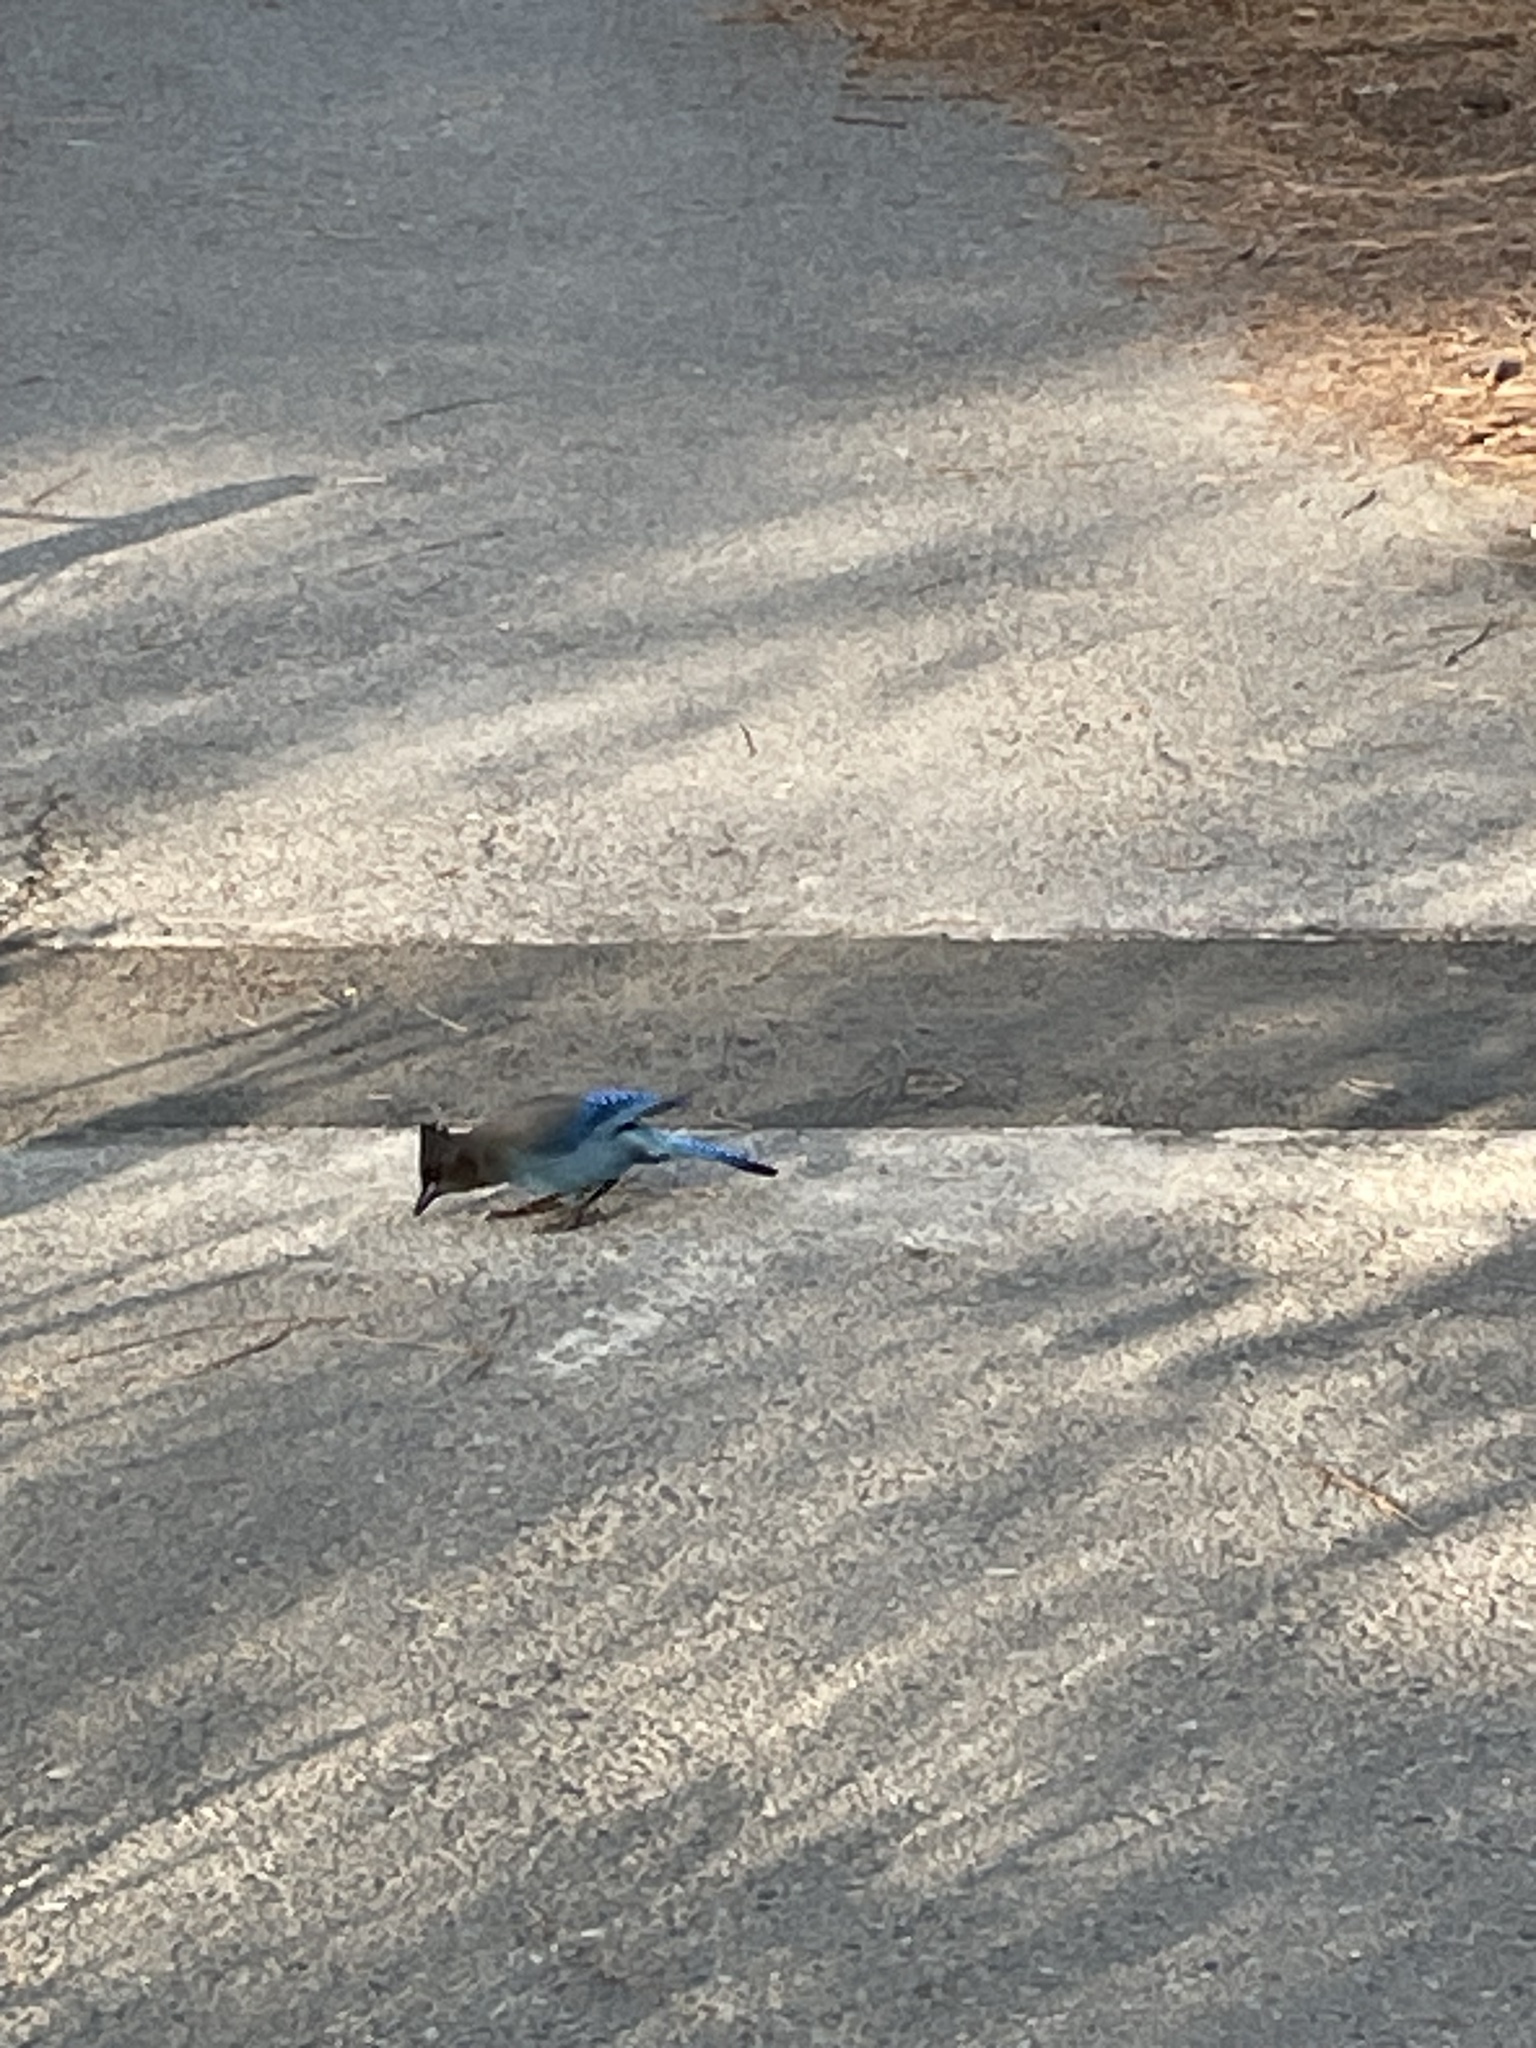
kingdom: Animalia
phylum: Chordata
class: Aves
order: Passeriformes
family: Corvidae
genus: Cyanocitta
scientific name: Cyanocitta stelleri
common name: Steller's jay
